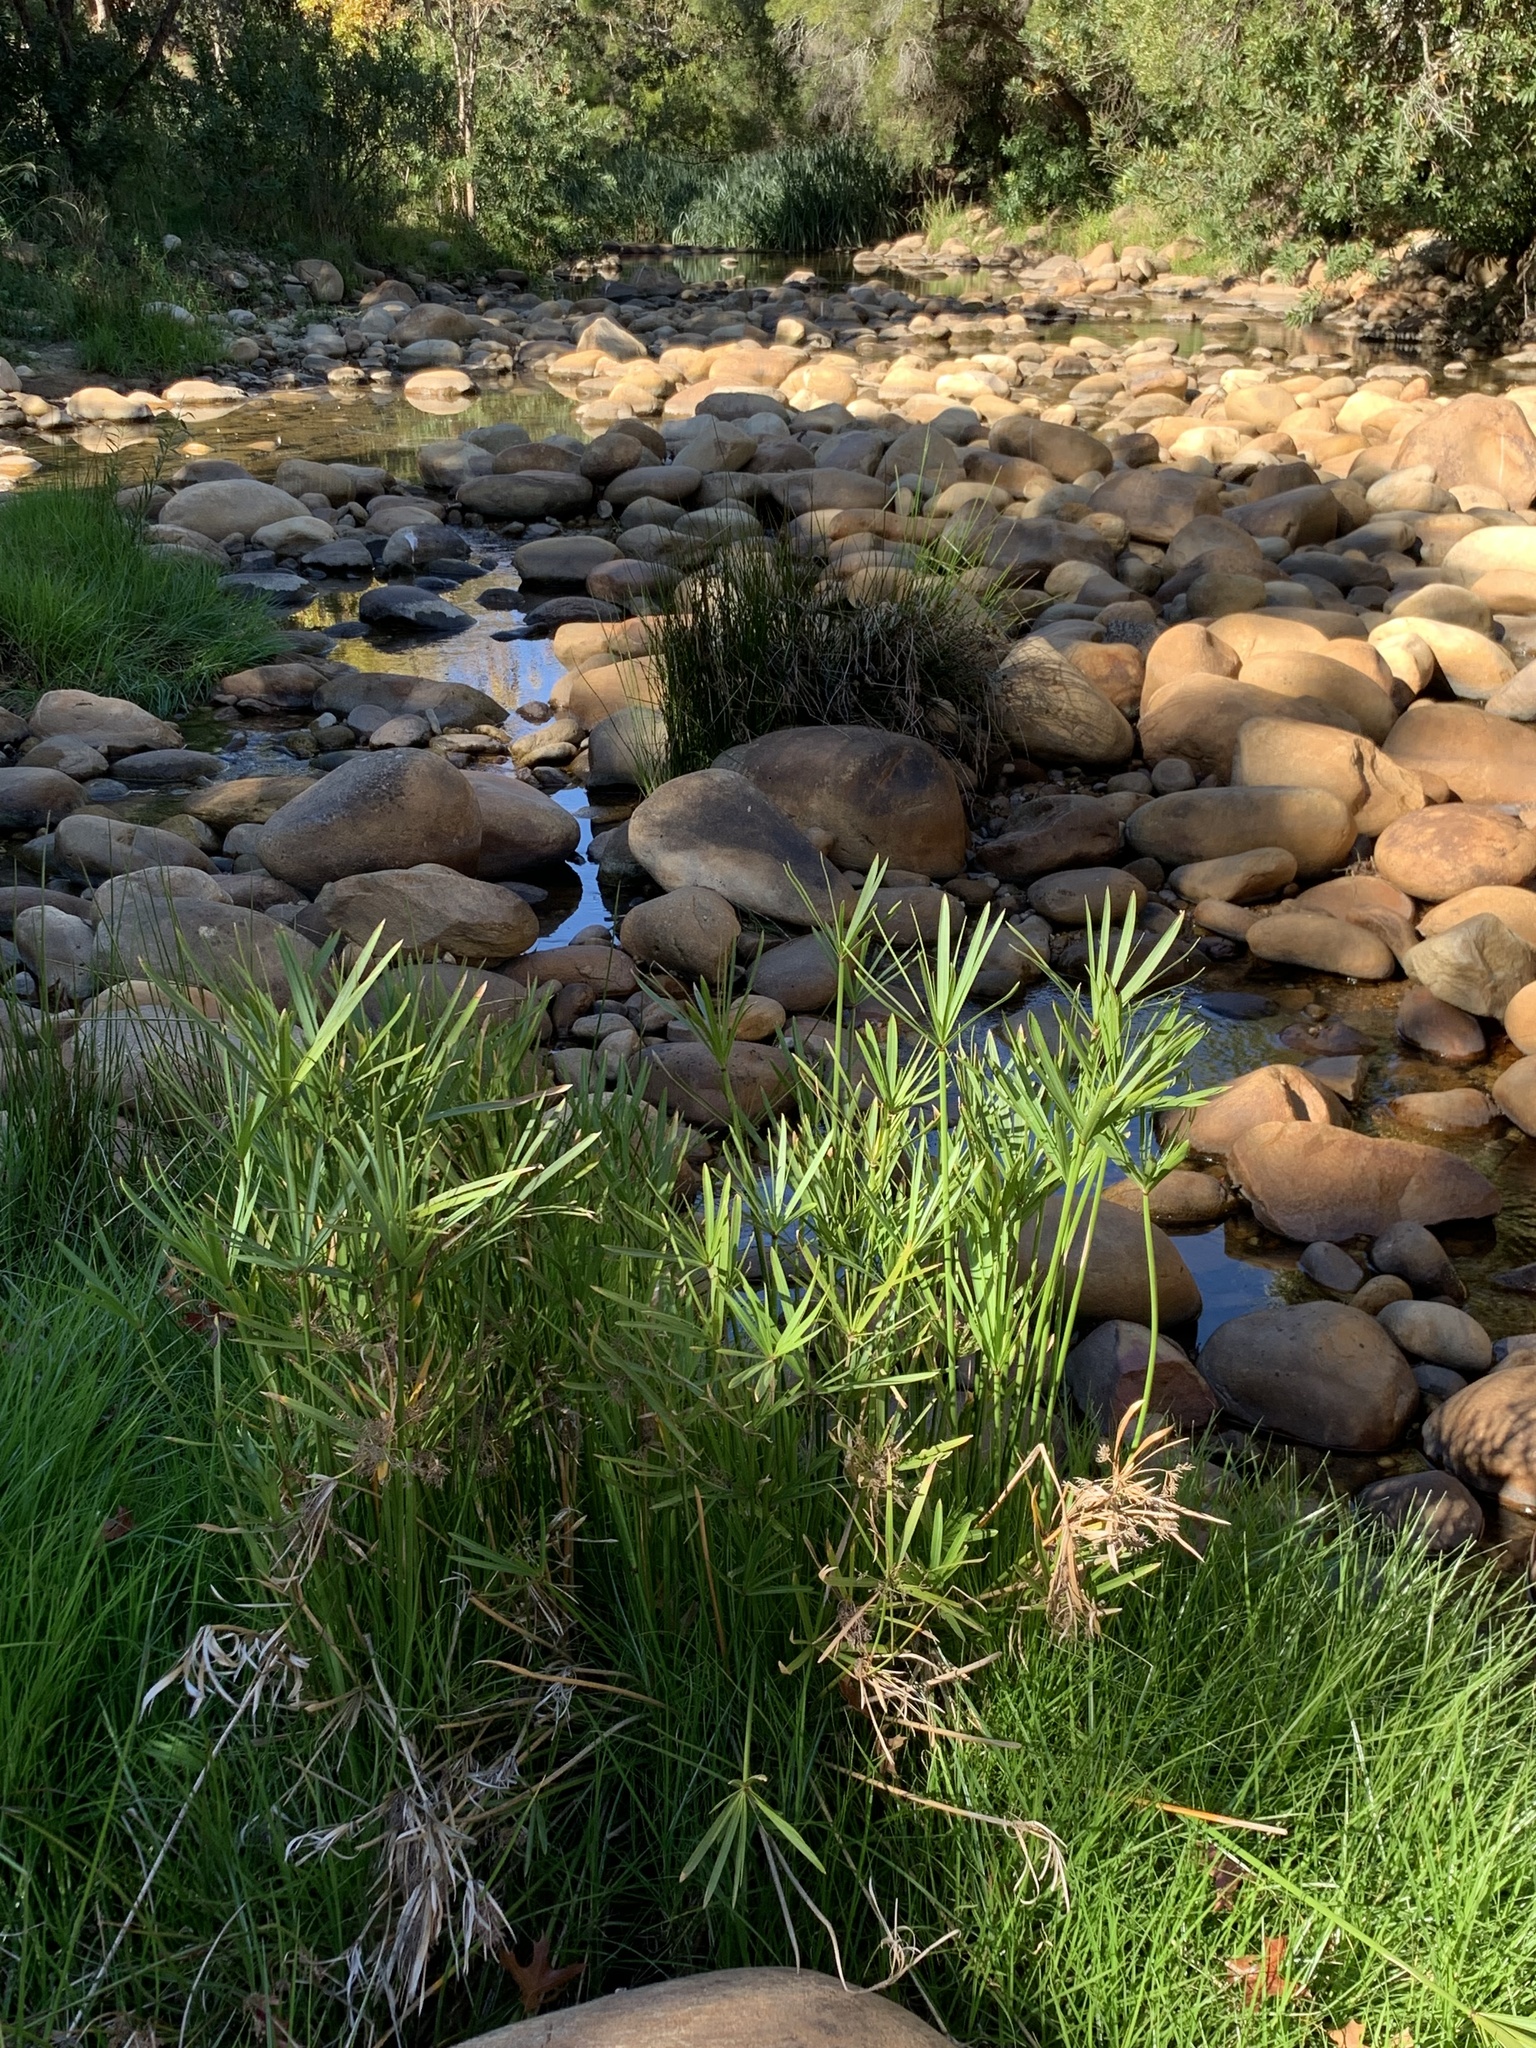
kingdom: Plantae
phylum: Tracheophyta
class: Liliopsida
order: Poales
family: Cyperaceae
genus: Cyperus
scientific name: Cyperus textilis
